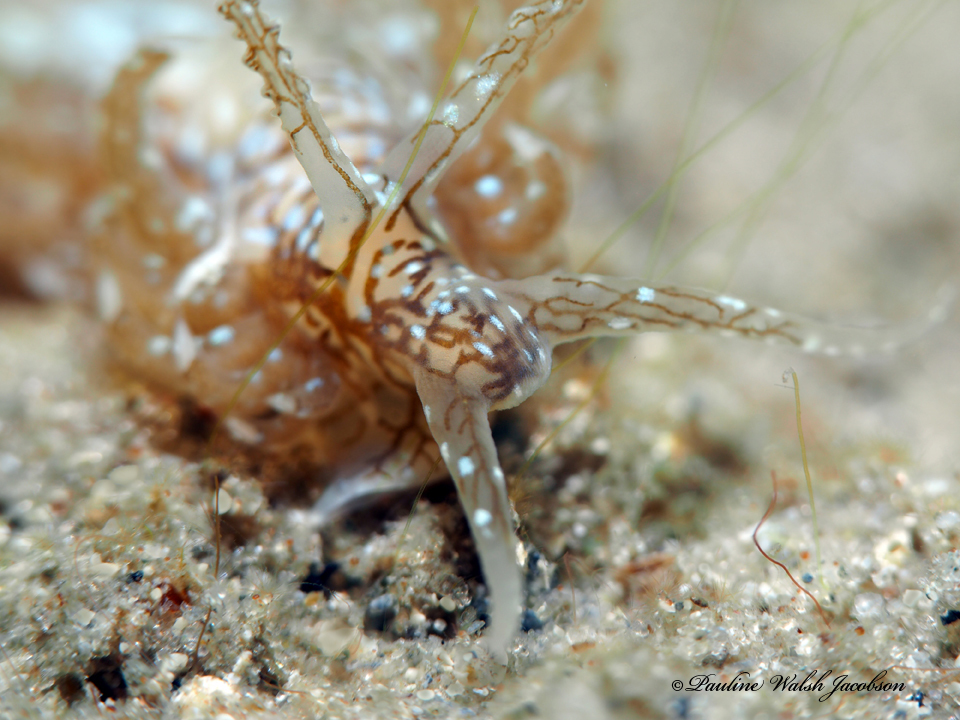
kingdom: Animalia
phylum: Mollusca
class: Gastropoda
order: Nudibranchia
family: Aeolidiidae
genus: Spurilla
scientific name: Spurilla dupontae
